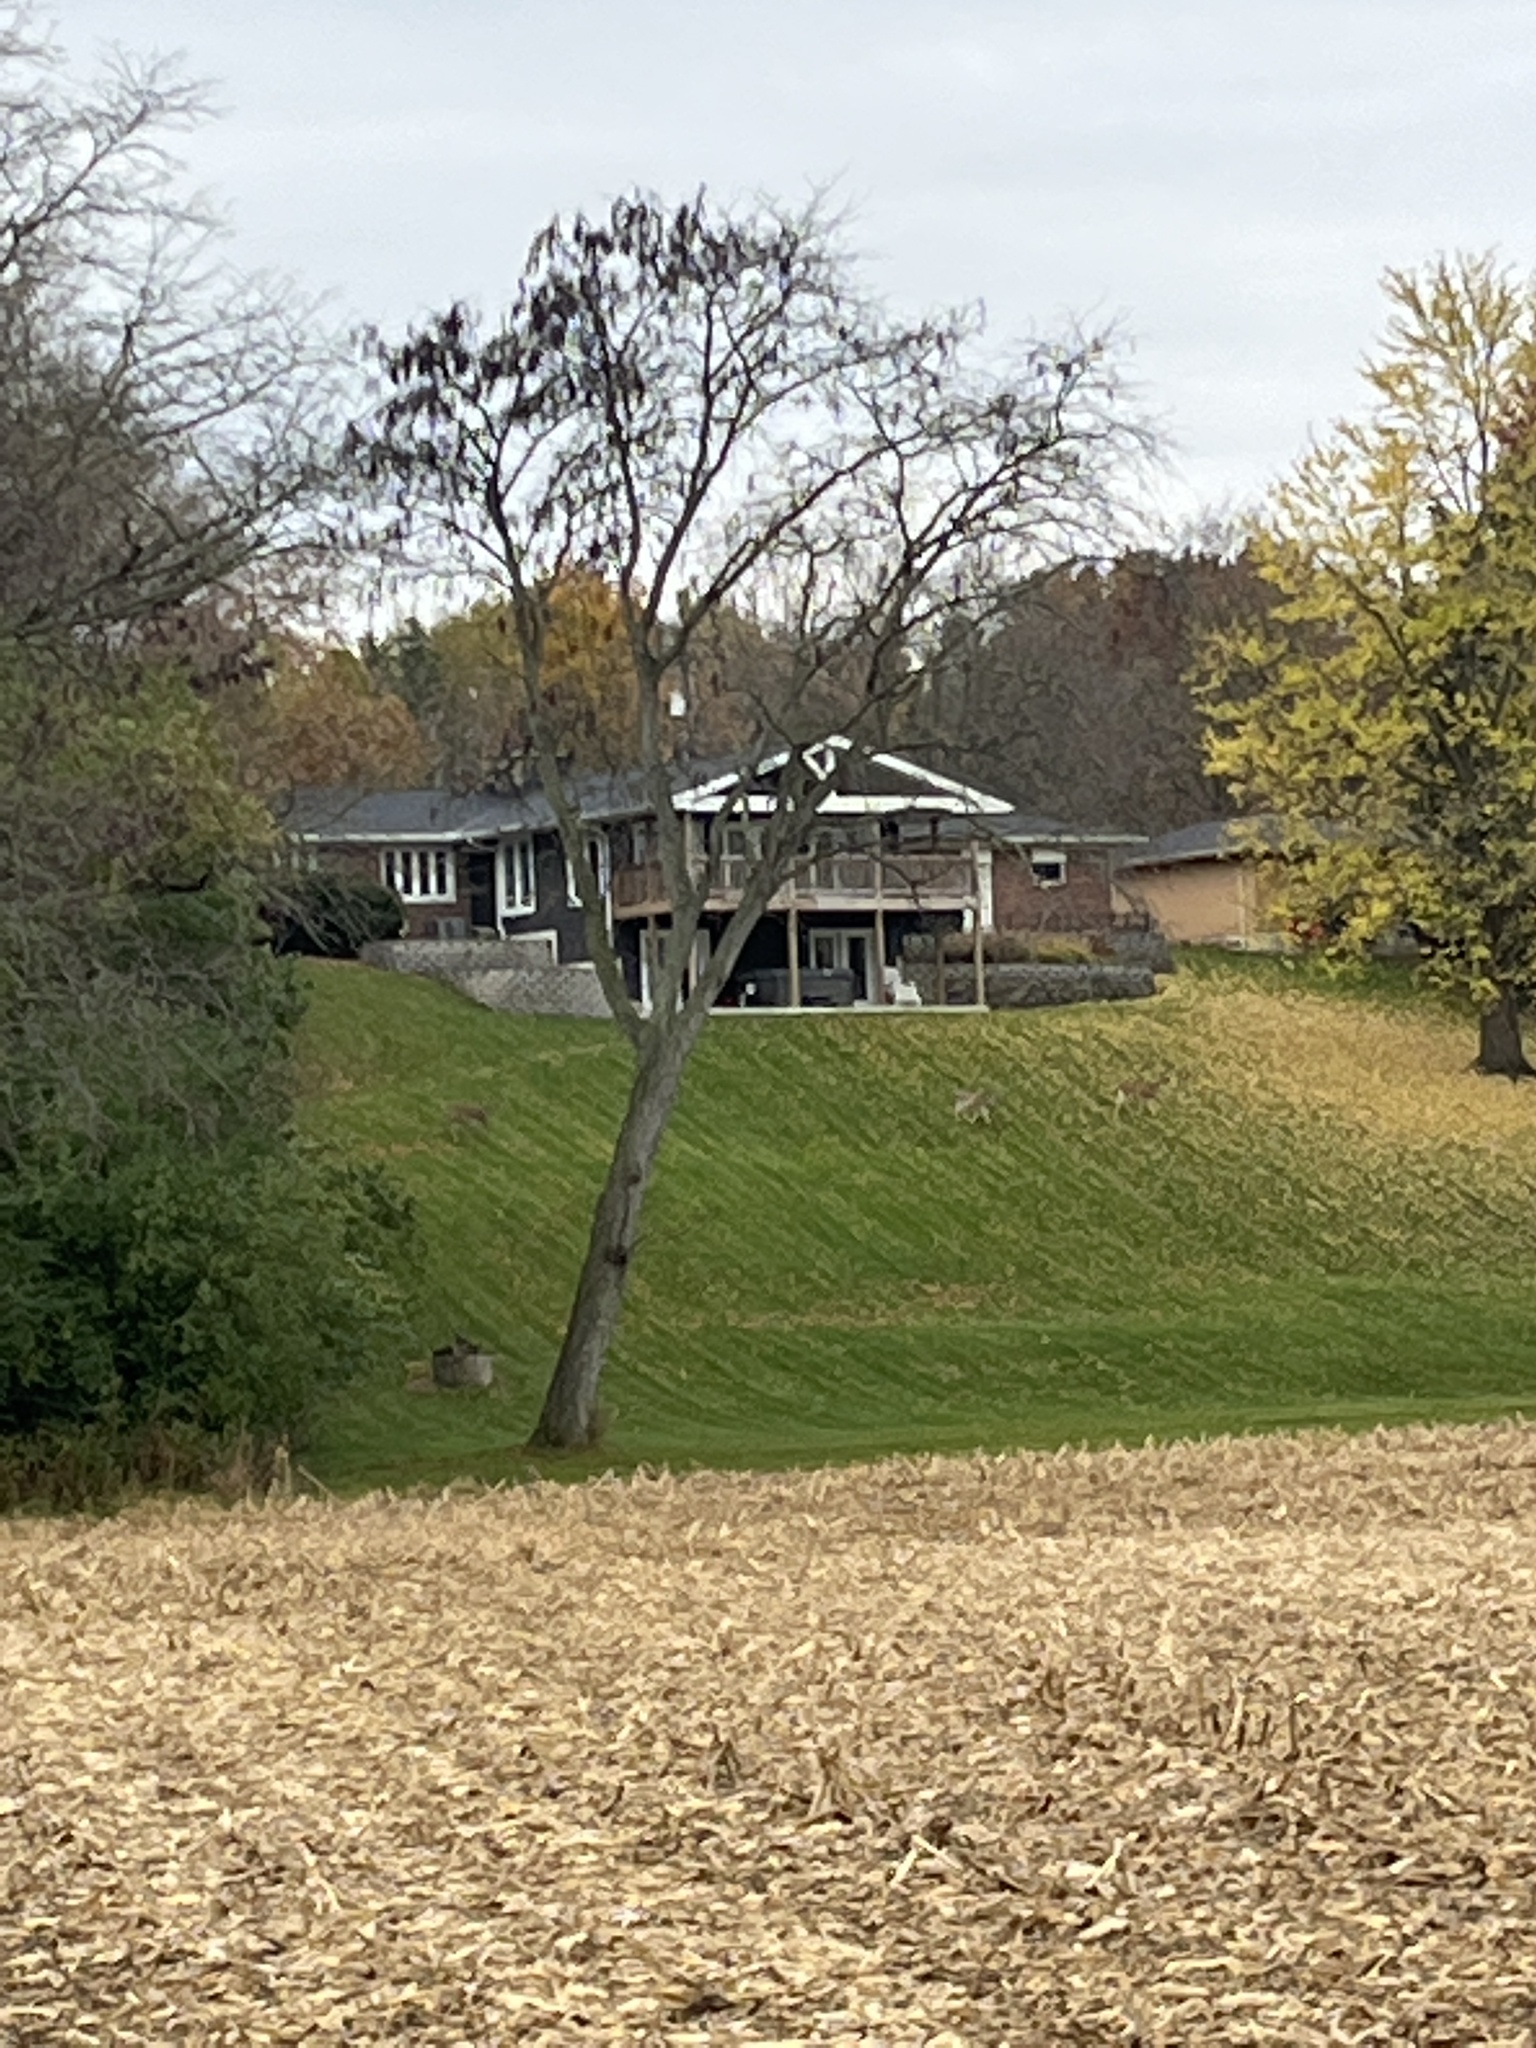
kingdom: Animalia
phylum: Chordata
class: Mammalia
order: Artiodactyla
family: Cervidae
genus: Odocoileus
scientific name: Odocoileus virginianus
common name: White-tailed deer
